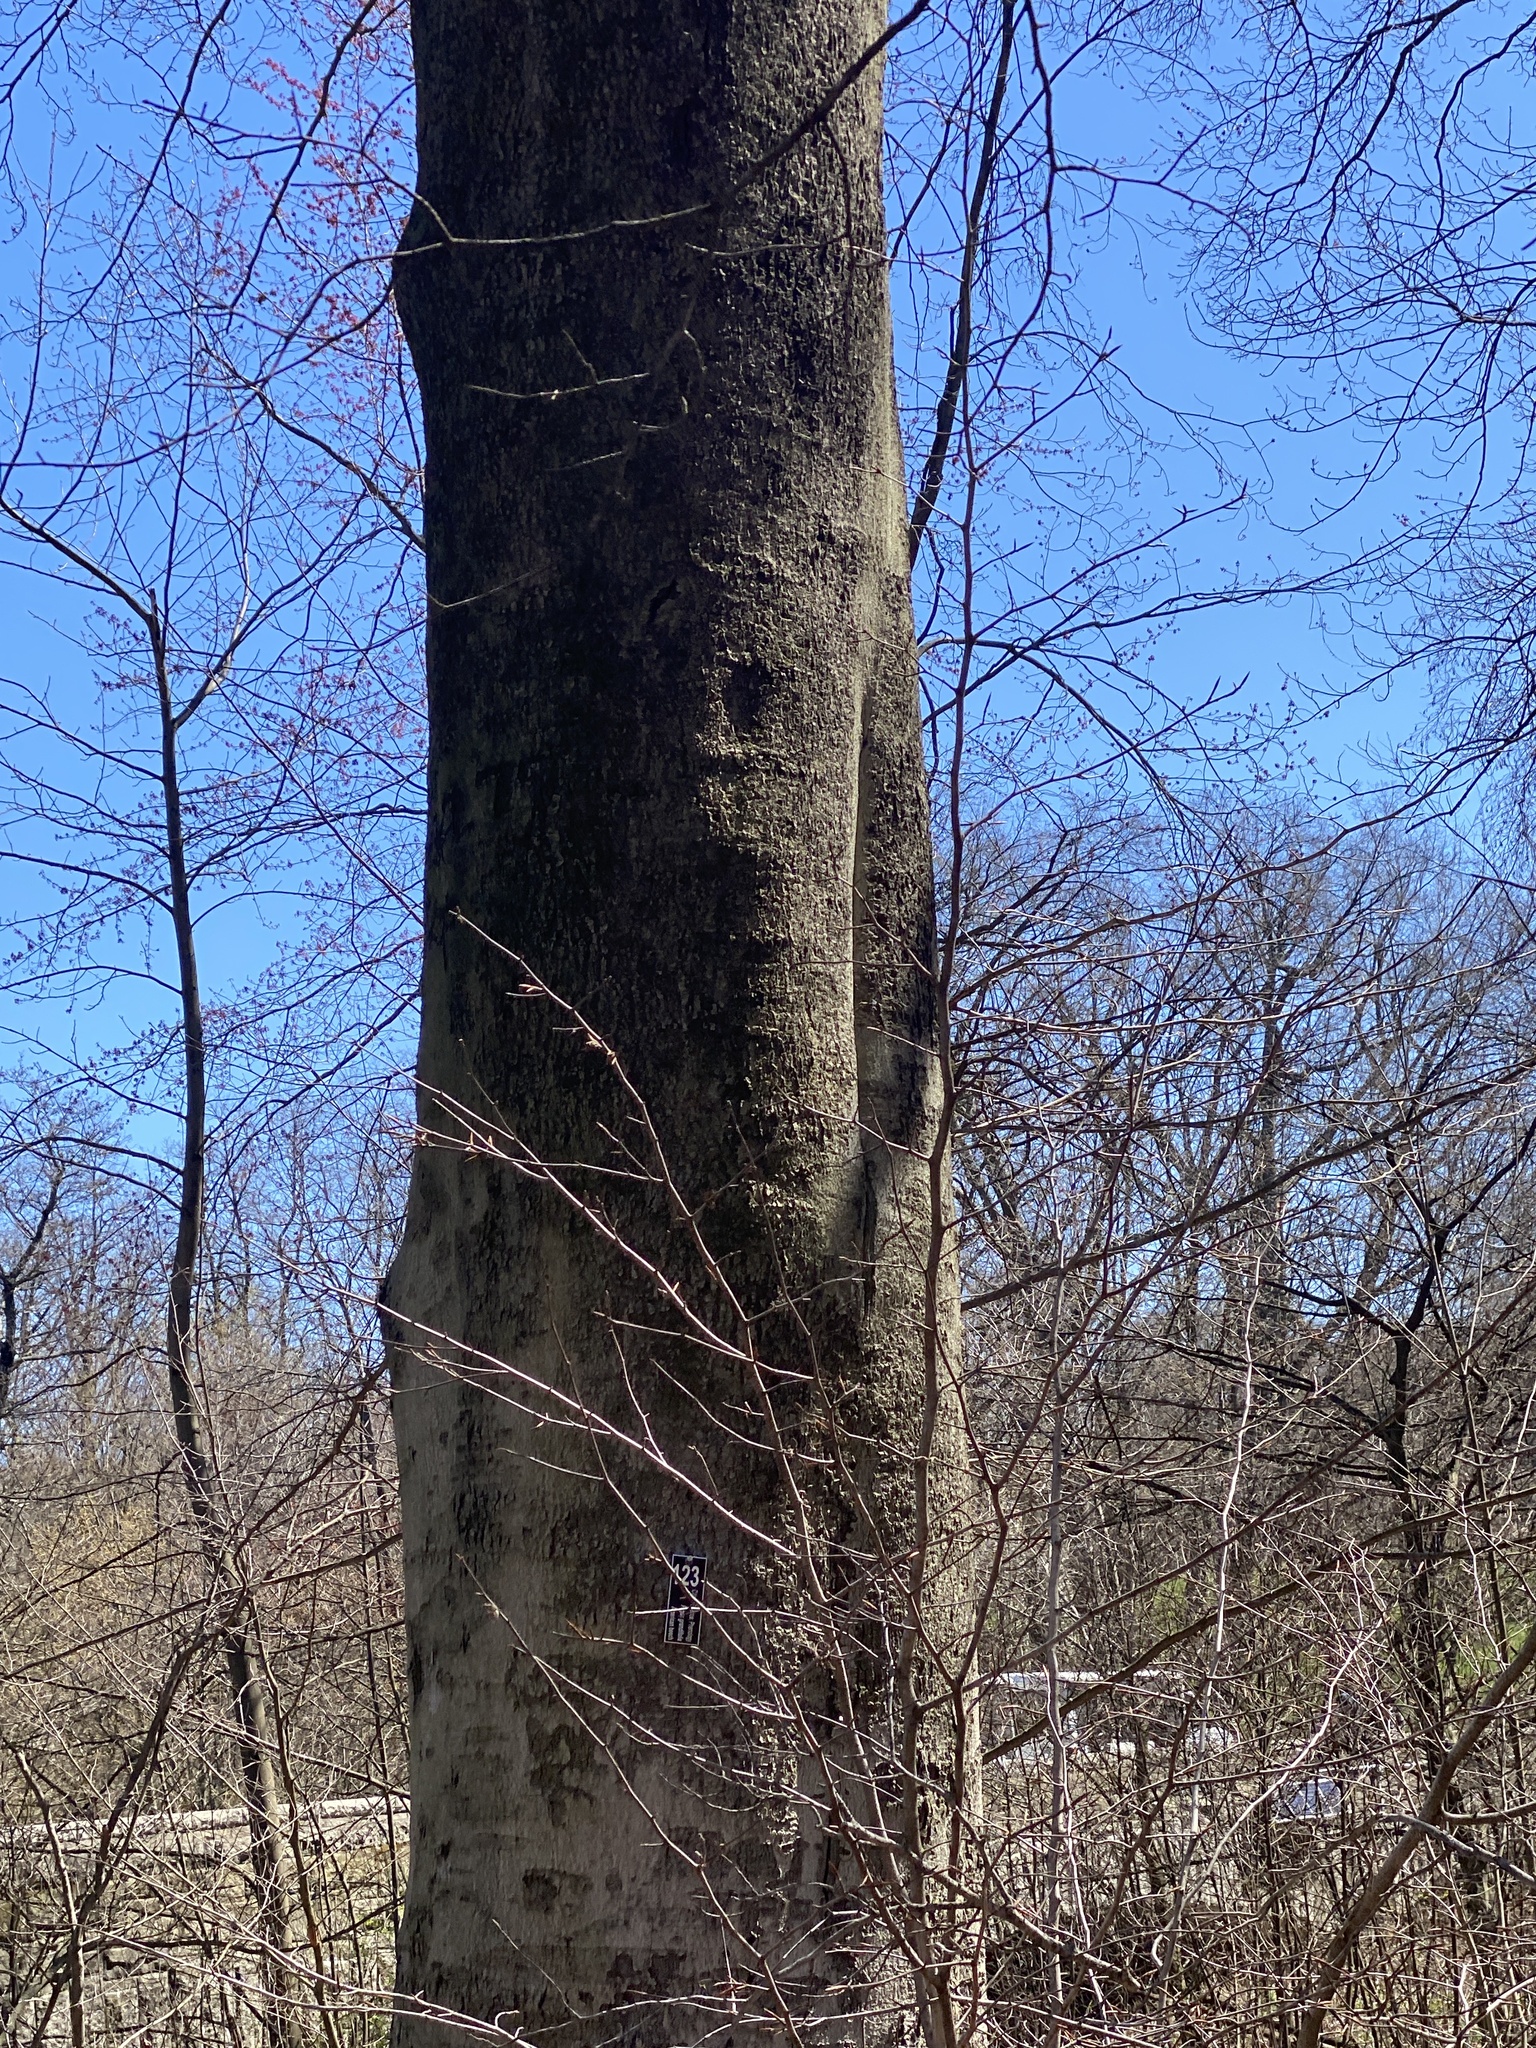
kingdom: Plantae
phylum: Tracheophyta
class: Magnoliopsida
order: Fagales
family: Fagaceae
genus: Fagus
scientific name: Fagus grandifolia
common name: American beech
